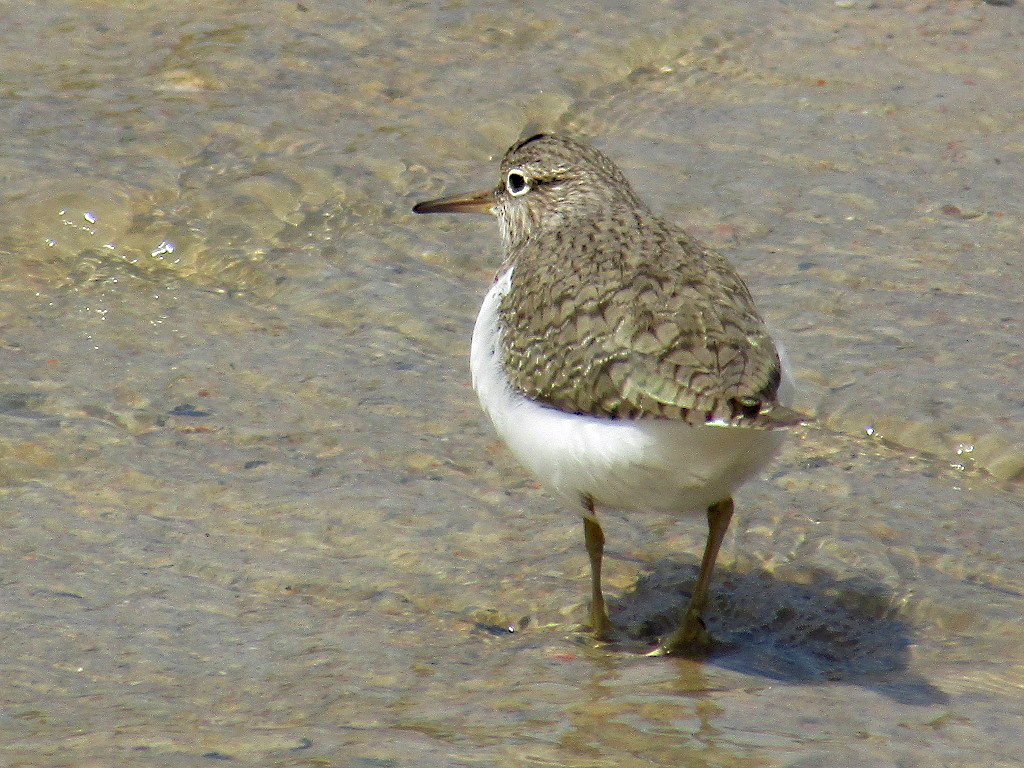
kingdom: Animalia
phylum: Chordata
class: Aves
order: Charadriiformes
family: Scolopacidae
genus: Actitis
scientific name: Actitis hypoleucos
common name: Common sandpiper
